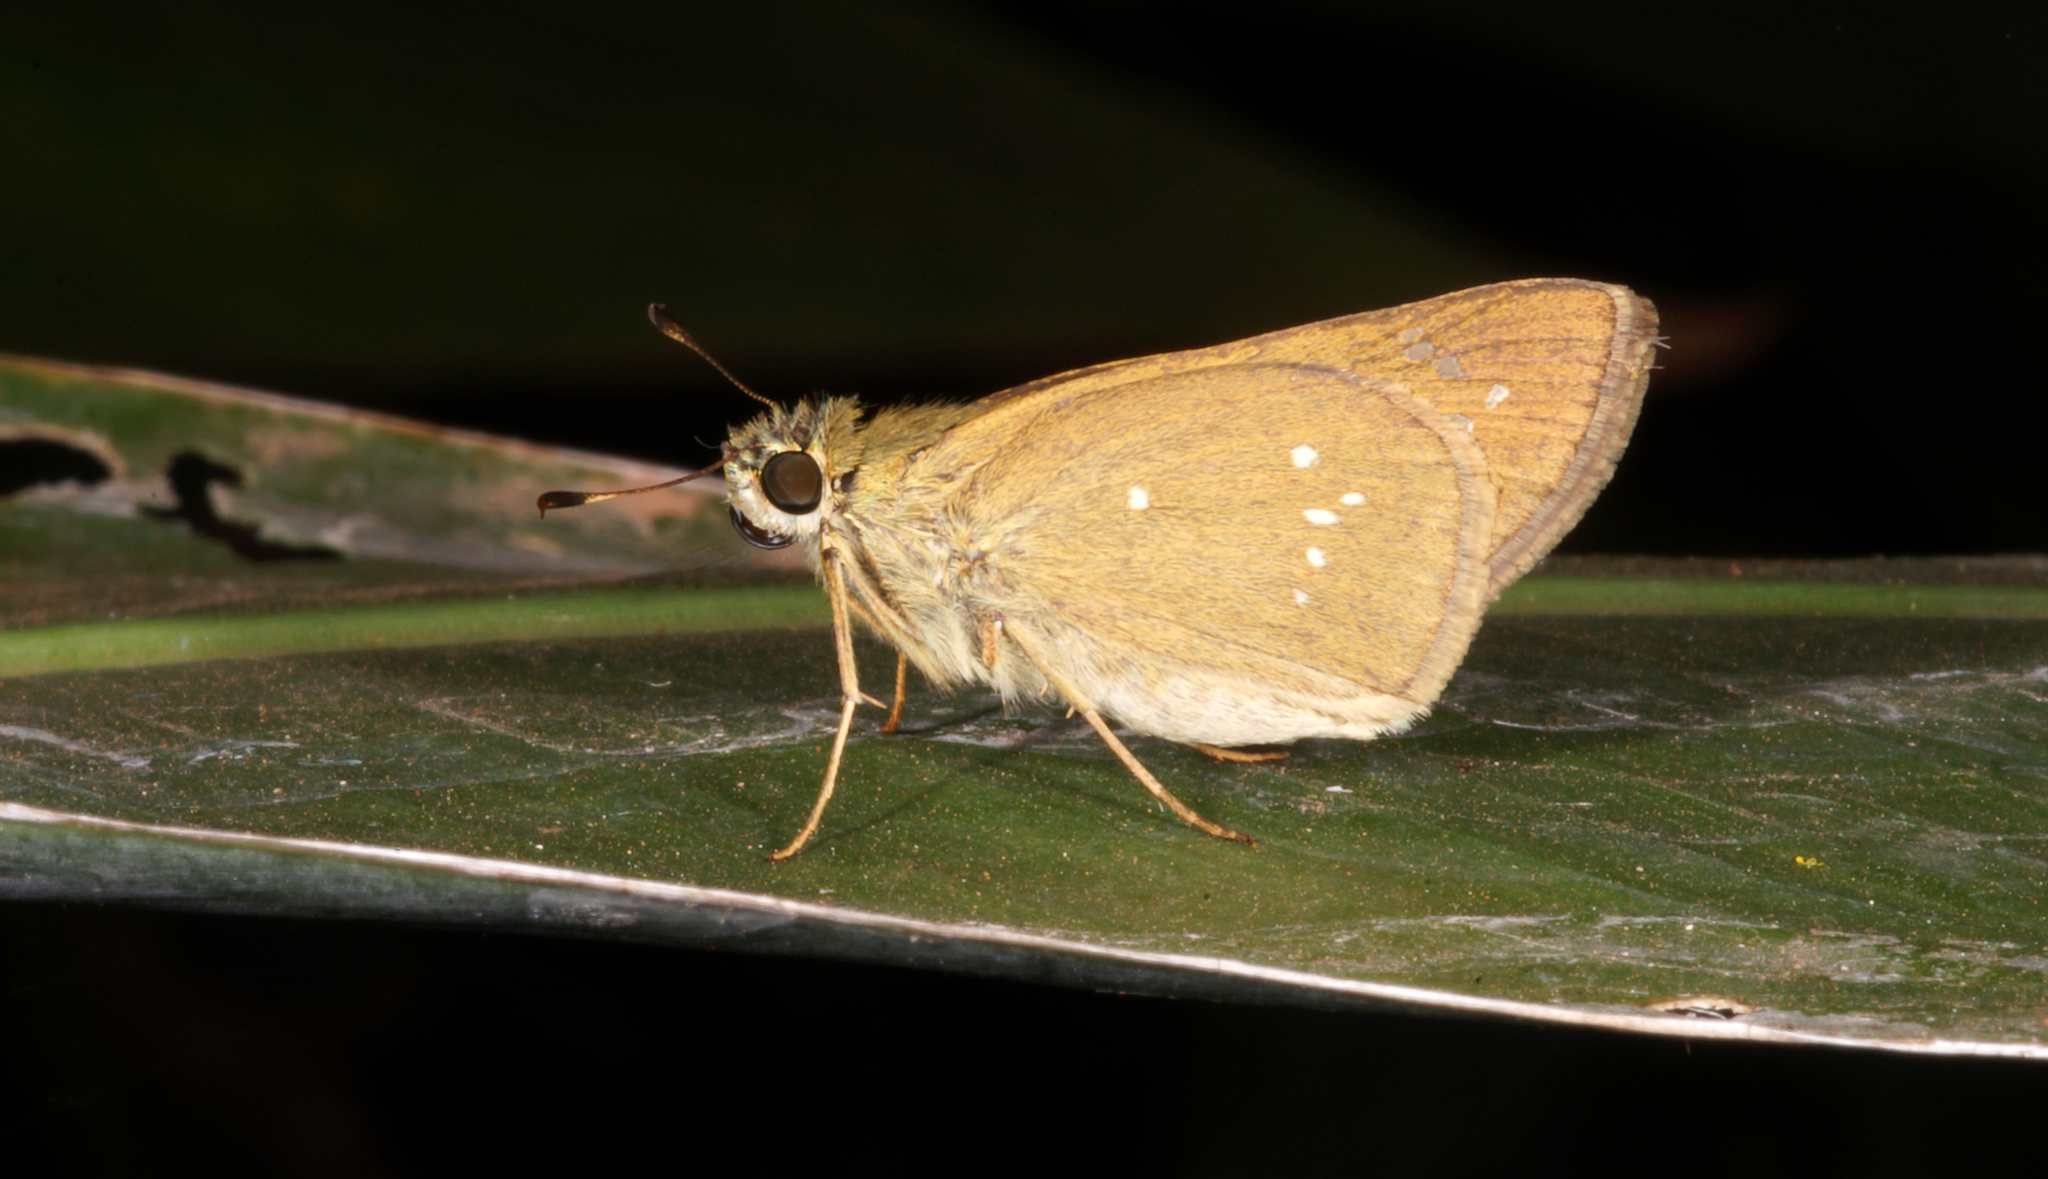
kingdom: Animalia
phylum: Arthropoda
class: Insecta
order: Lepidoptera
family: Hesperiidae
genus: Pelopidas
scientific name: Pelopidas mathias
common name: Black-branded swift
